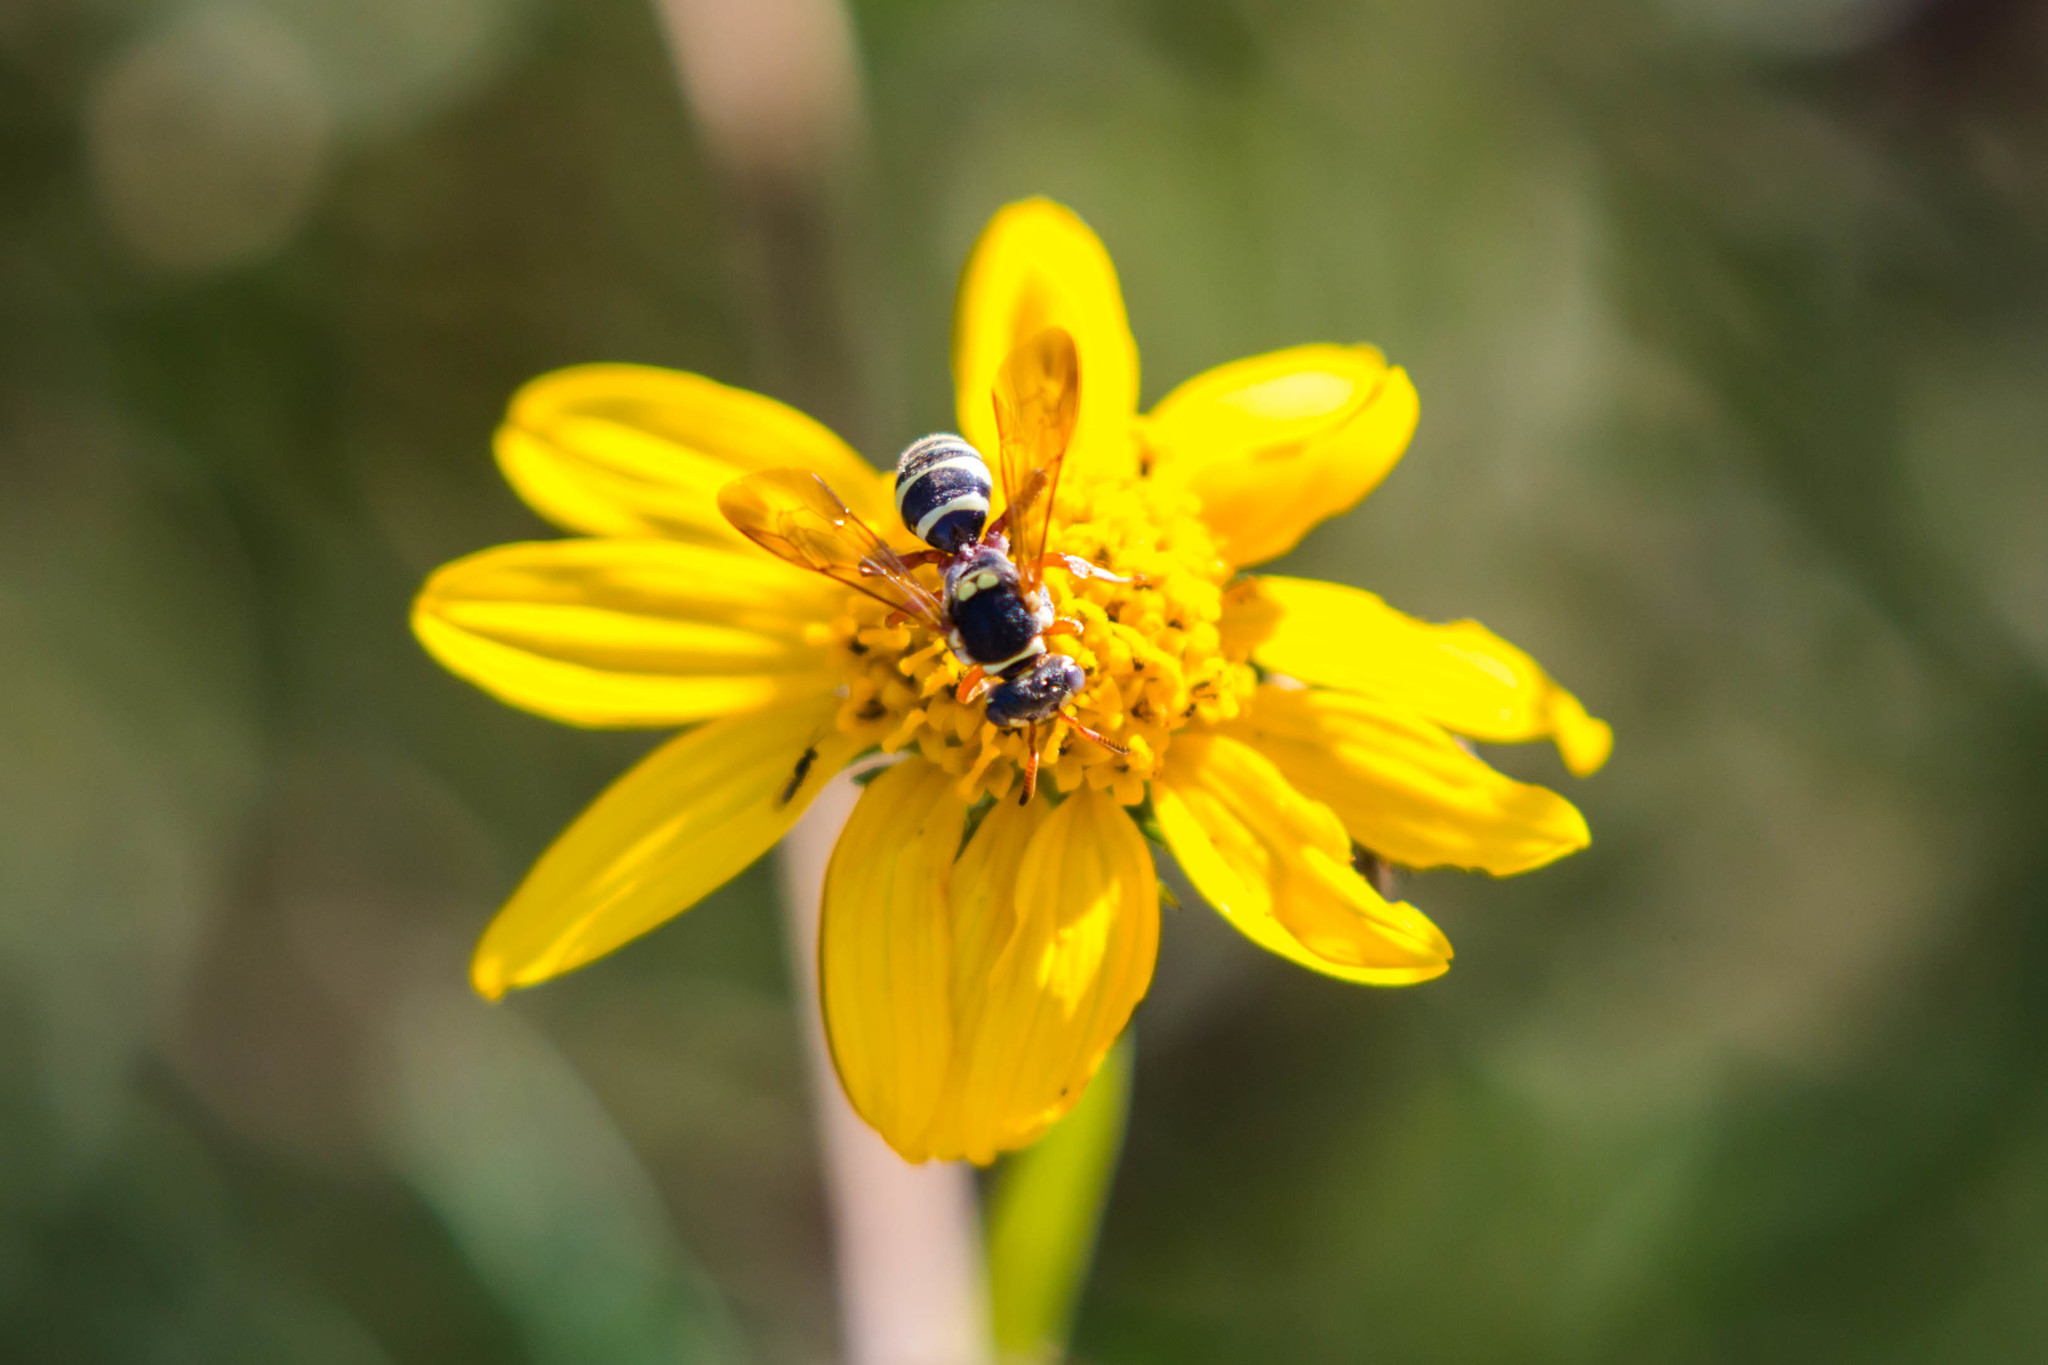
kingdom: Animalia
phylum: Arthropoda
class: Insecta
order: Hymenoptera
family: Apidae
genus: Nomada
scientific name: Nomada texana
